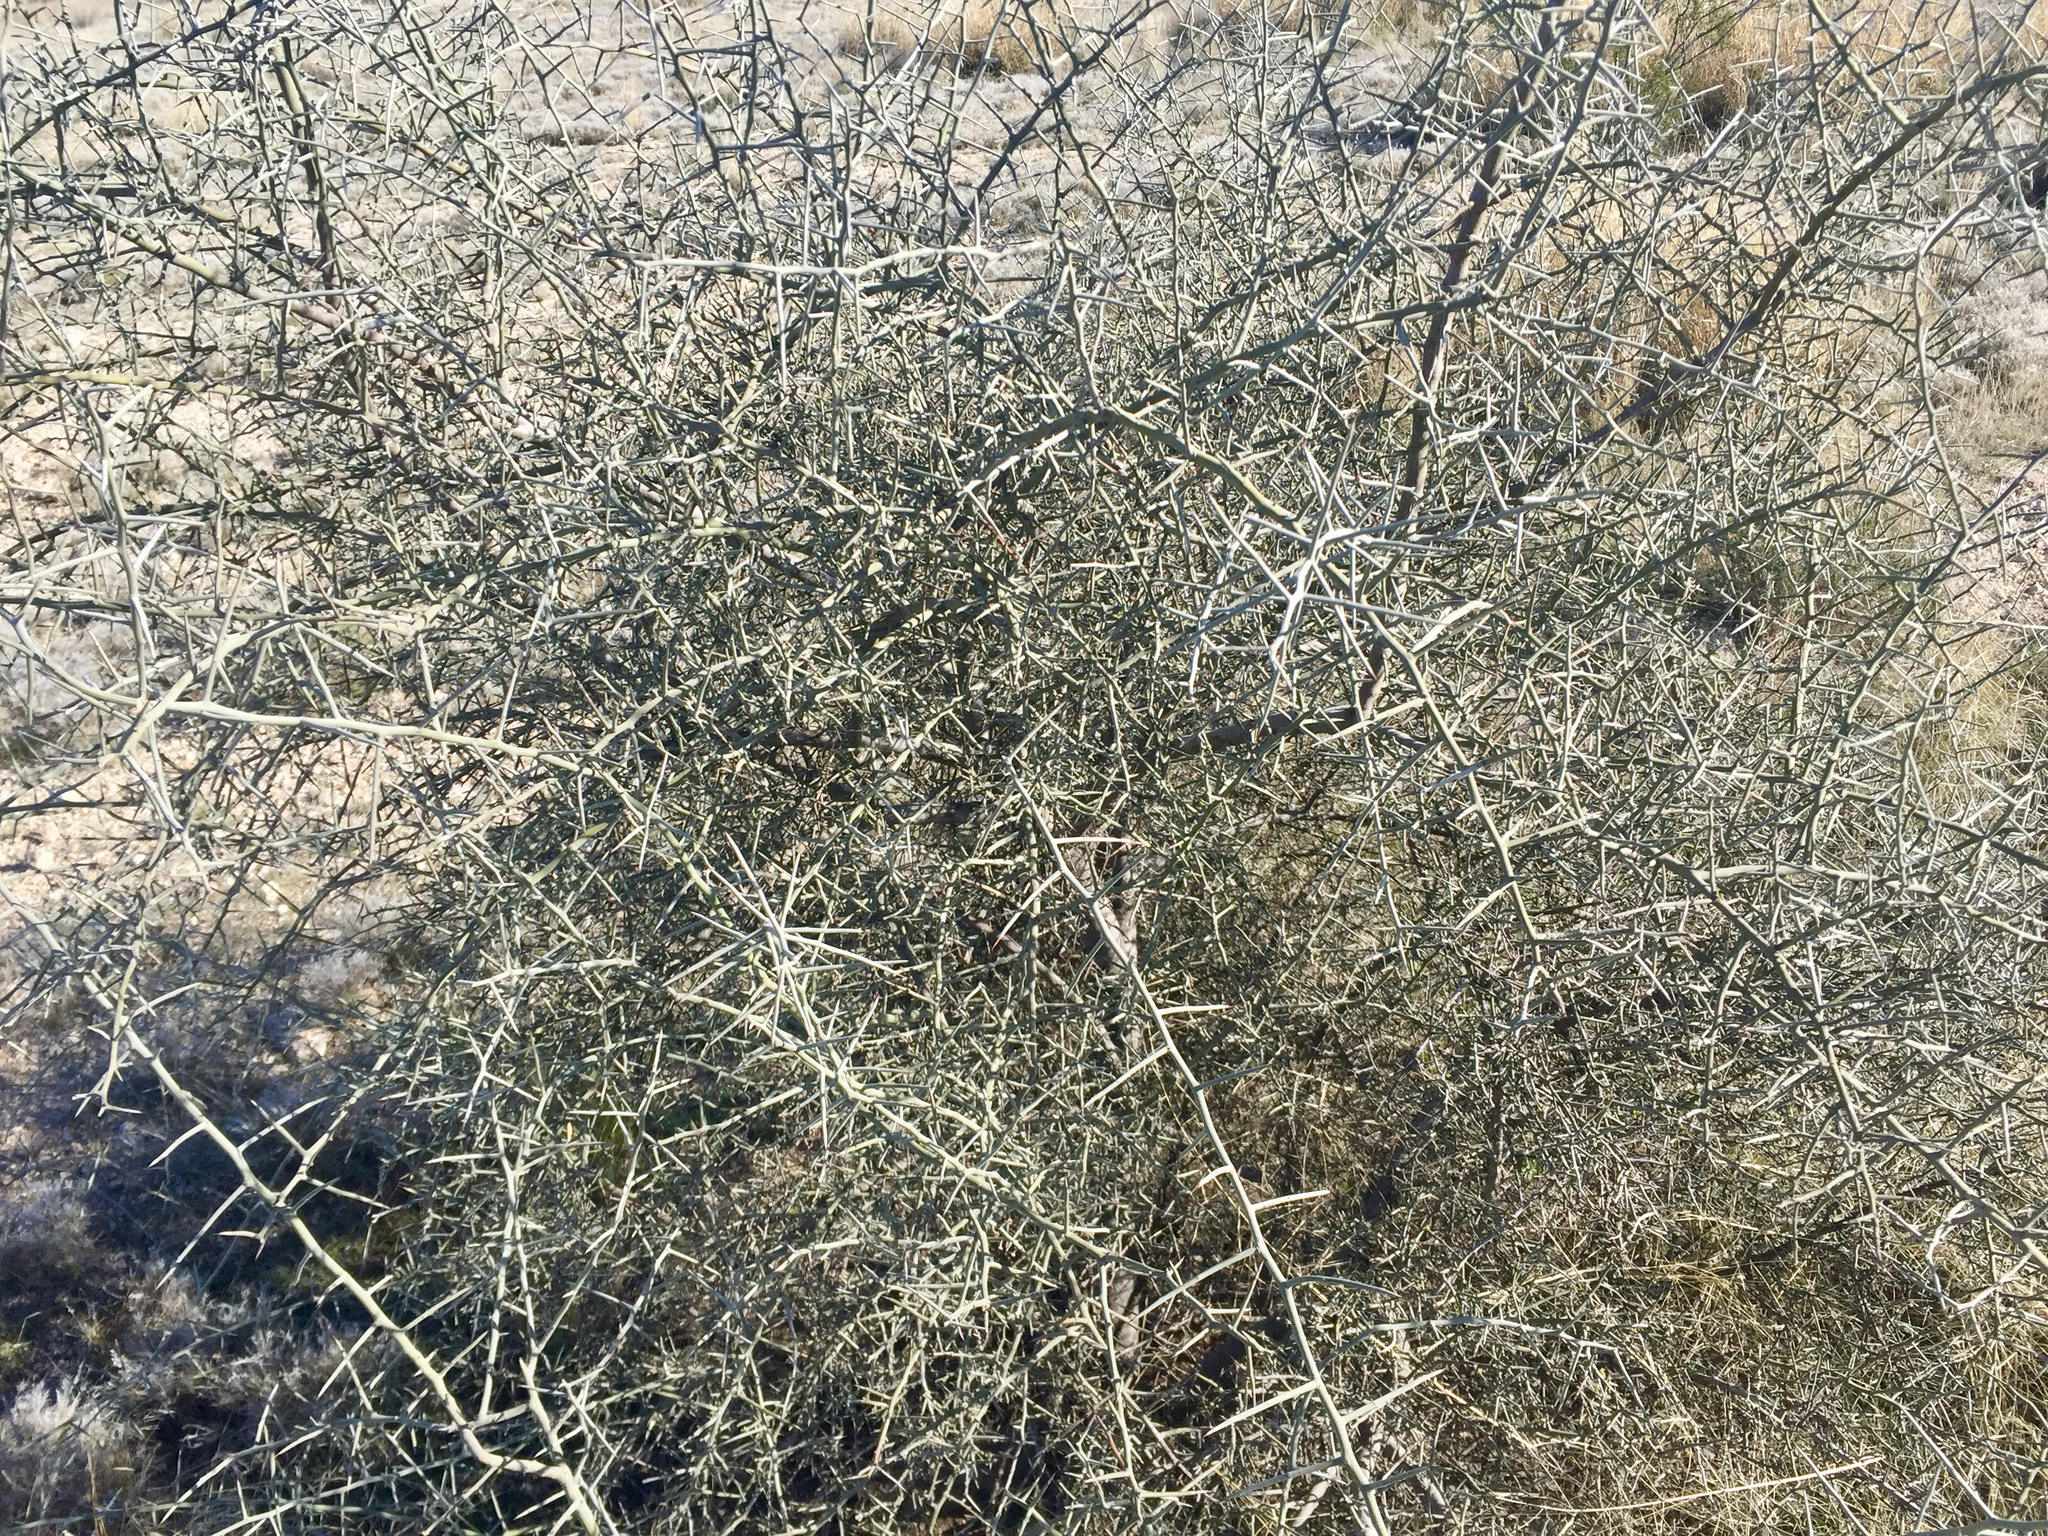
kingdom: Plantae
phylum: Tracheophyta
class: Magnoliopsida
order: Rosales
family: Rhamnaceae
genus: Sarcomphalus
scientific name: Sarcomphalus obtusifolius
